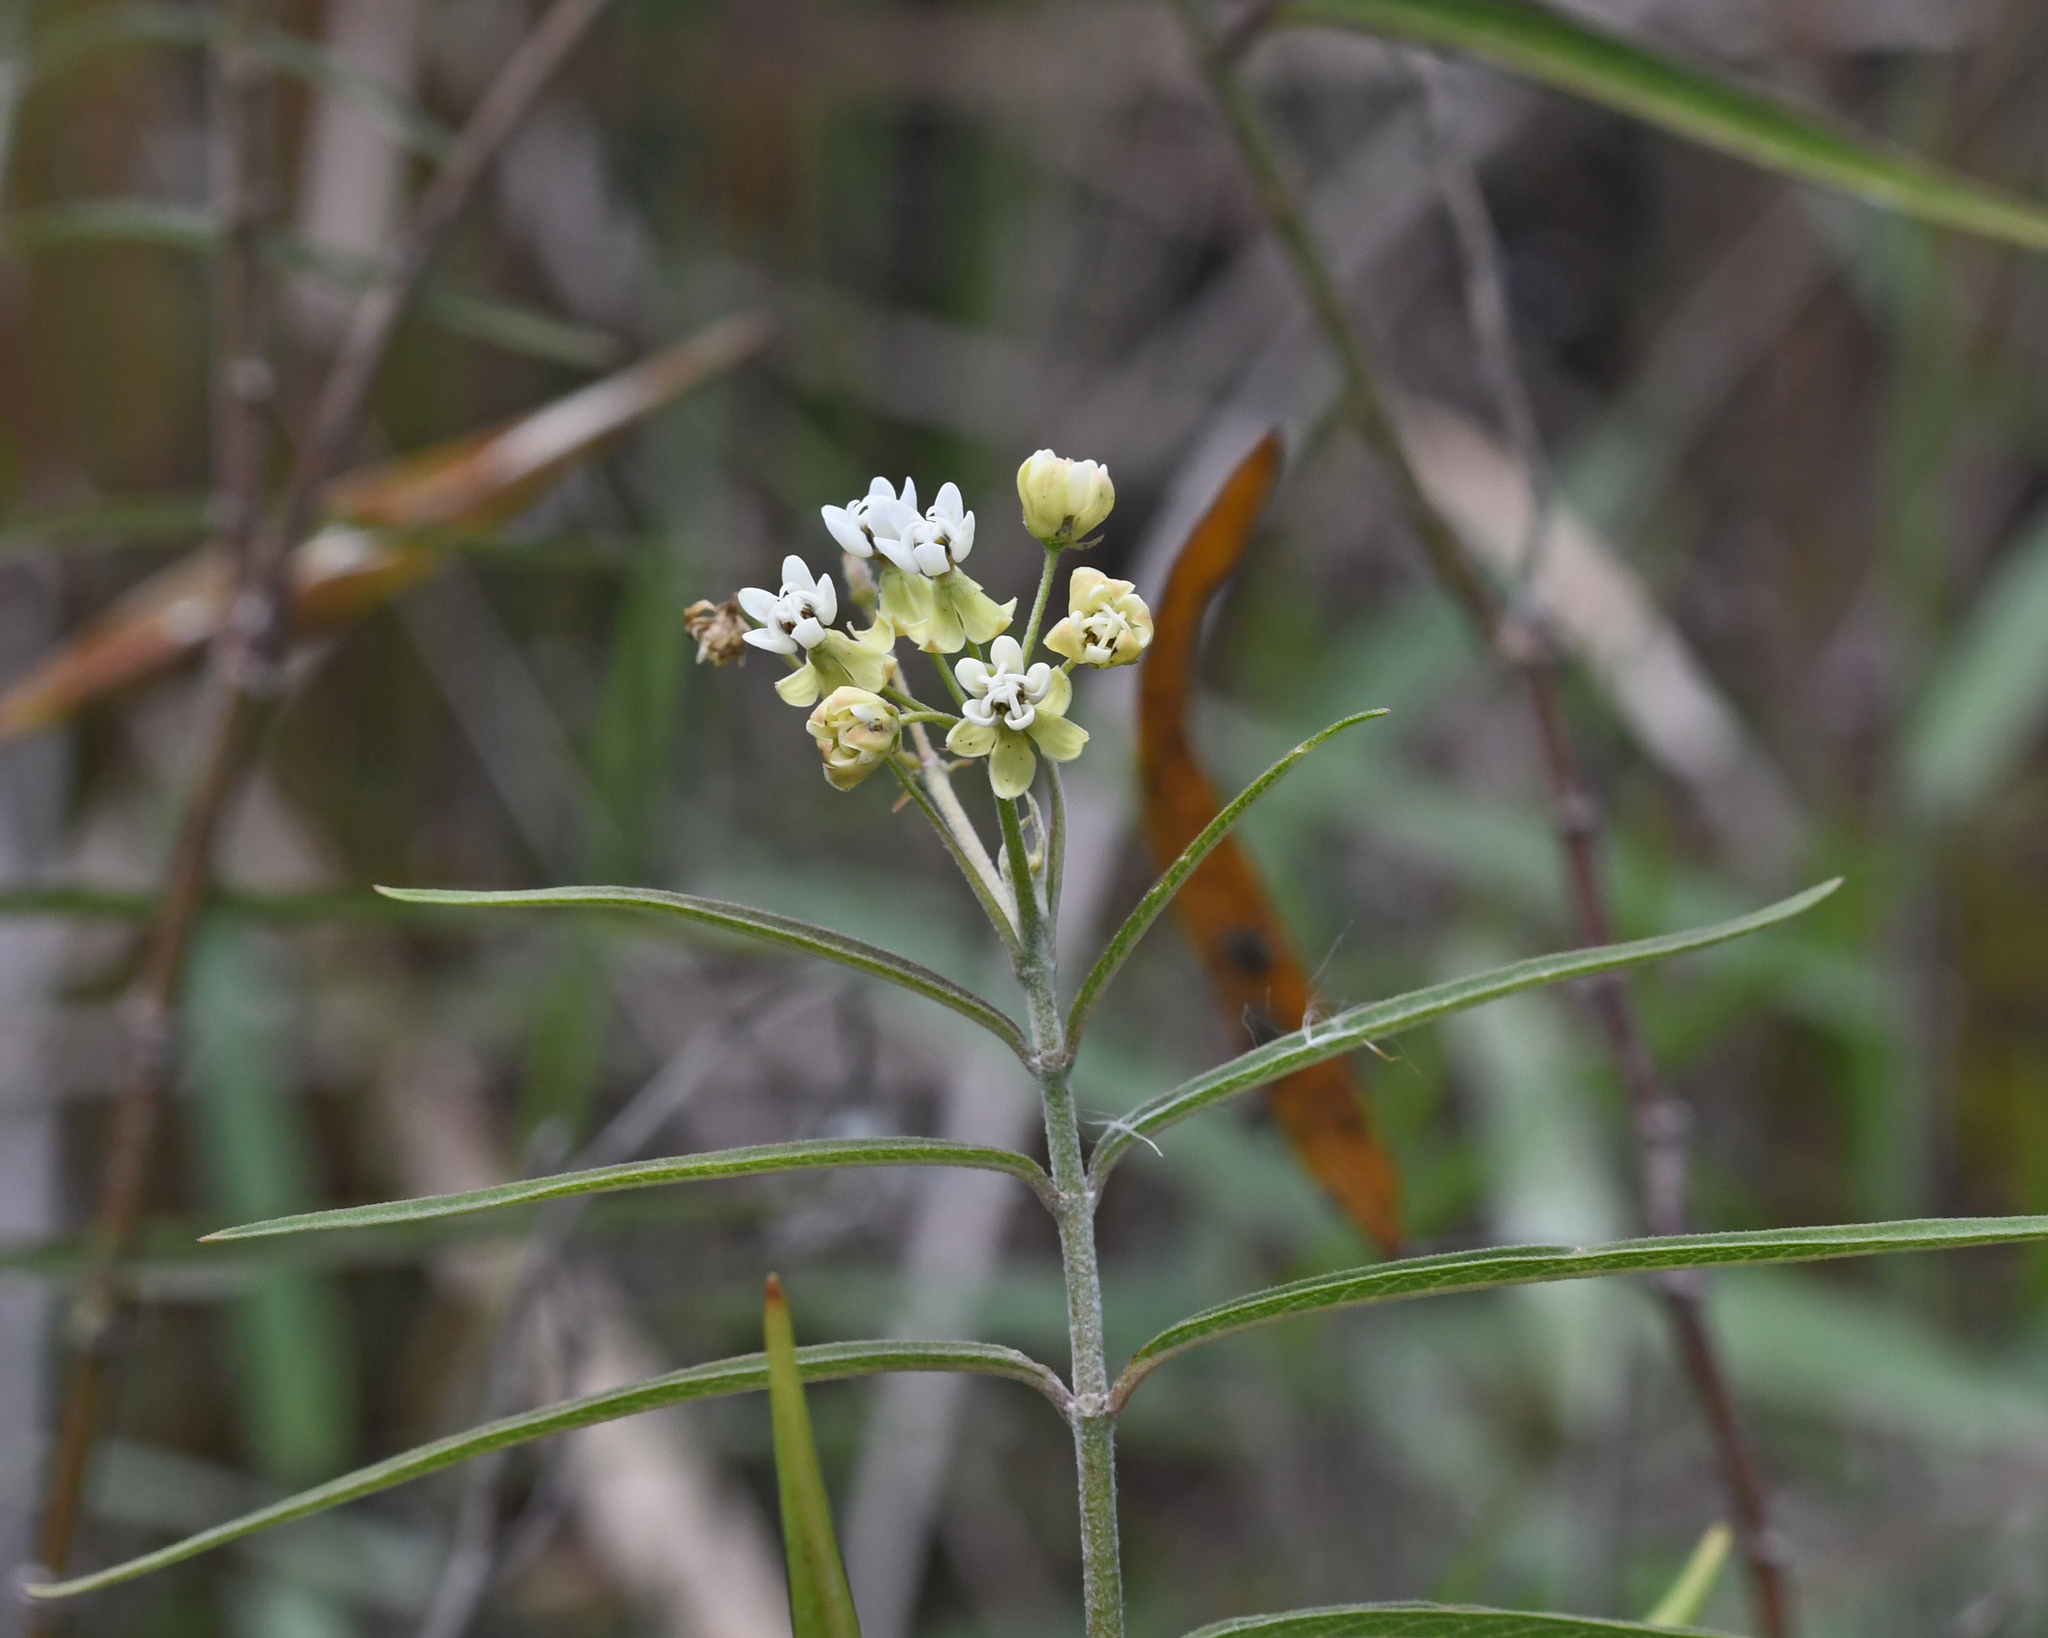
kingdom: Plantae
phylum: Tracheophyta
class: Magnoliopsida
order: Gentianales
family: Apocynaceae
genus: Asclepias
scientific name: Asclepias nivea
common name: Ipecacuanha
